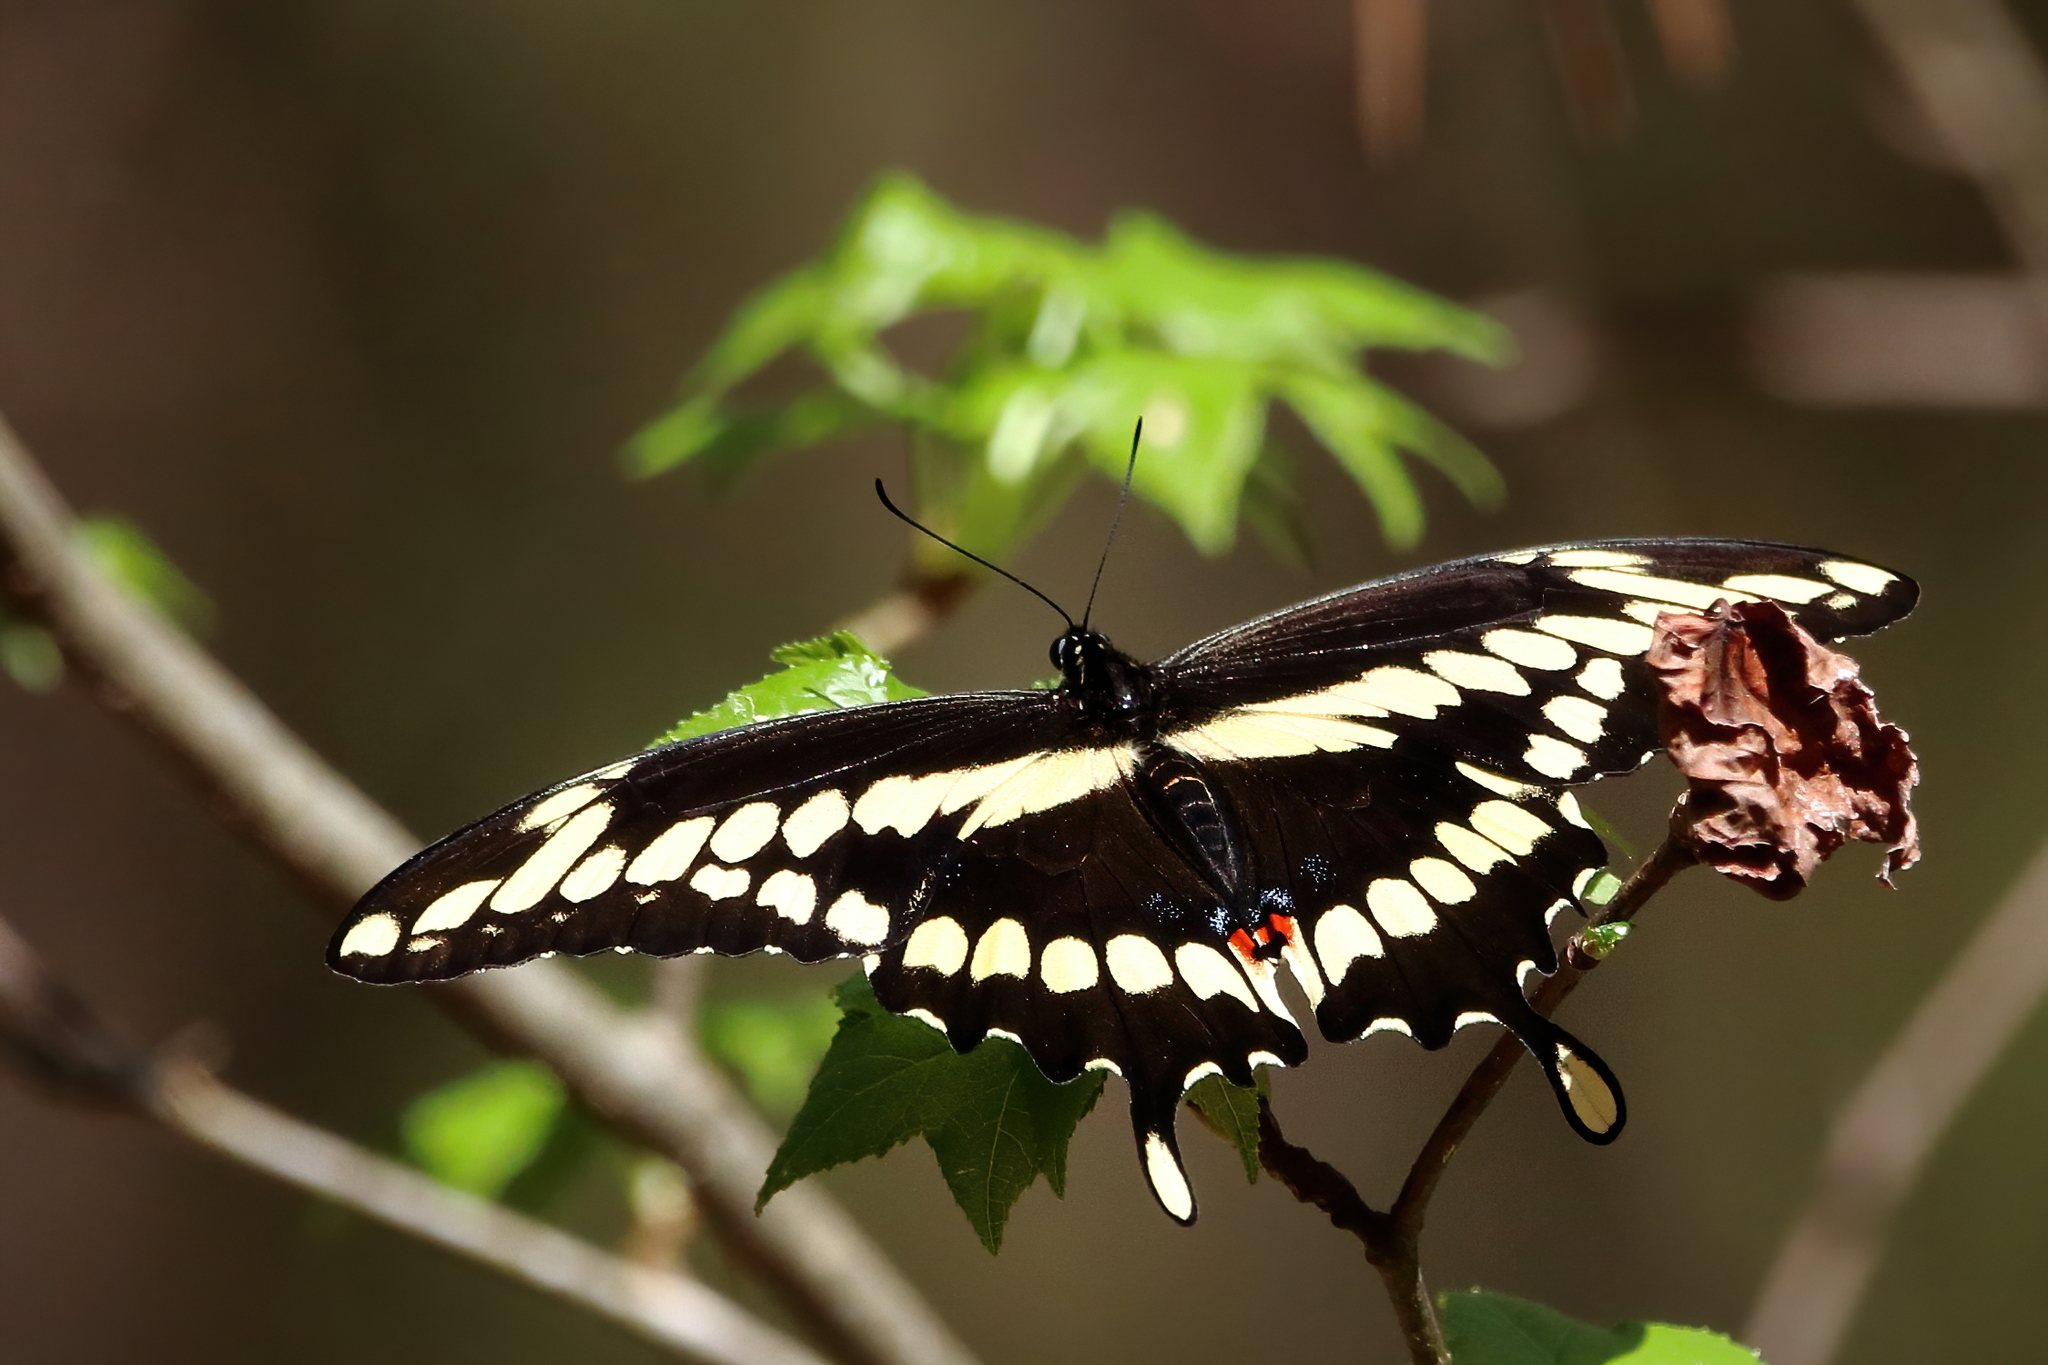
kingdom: Animalia
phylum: Arthropoda
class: Insecta
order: Lepidoptera
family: Papilionidae
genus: Papilio
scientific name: Papilio cresphontes
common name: Giant swallowtail
